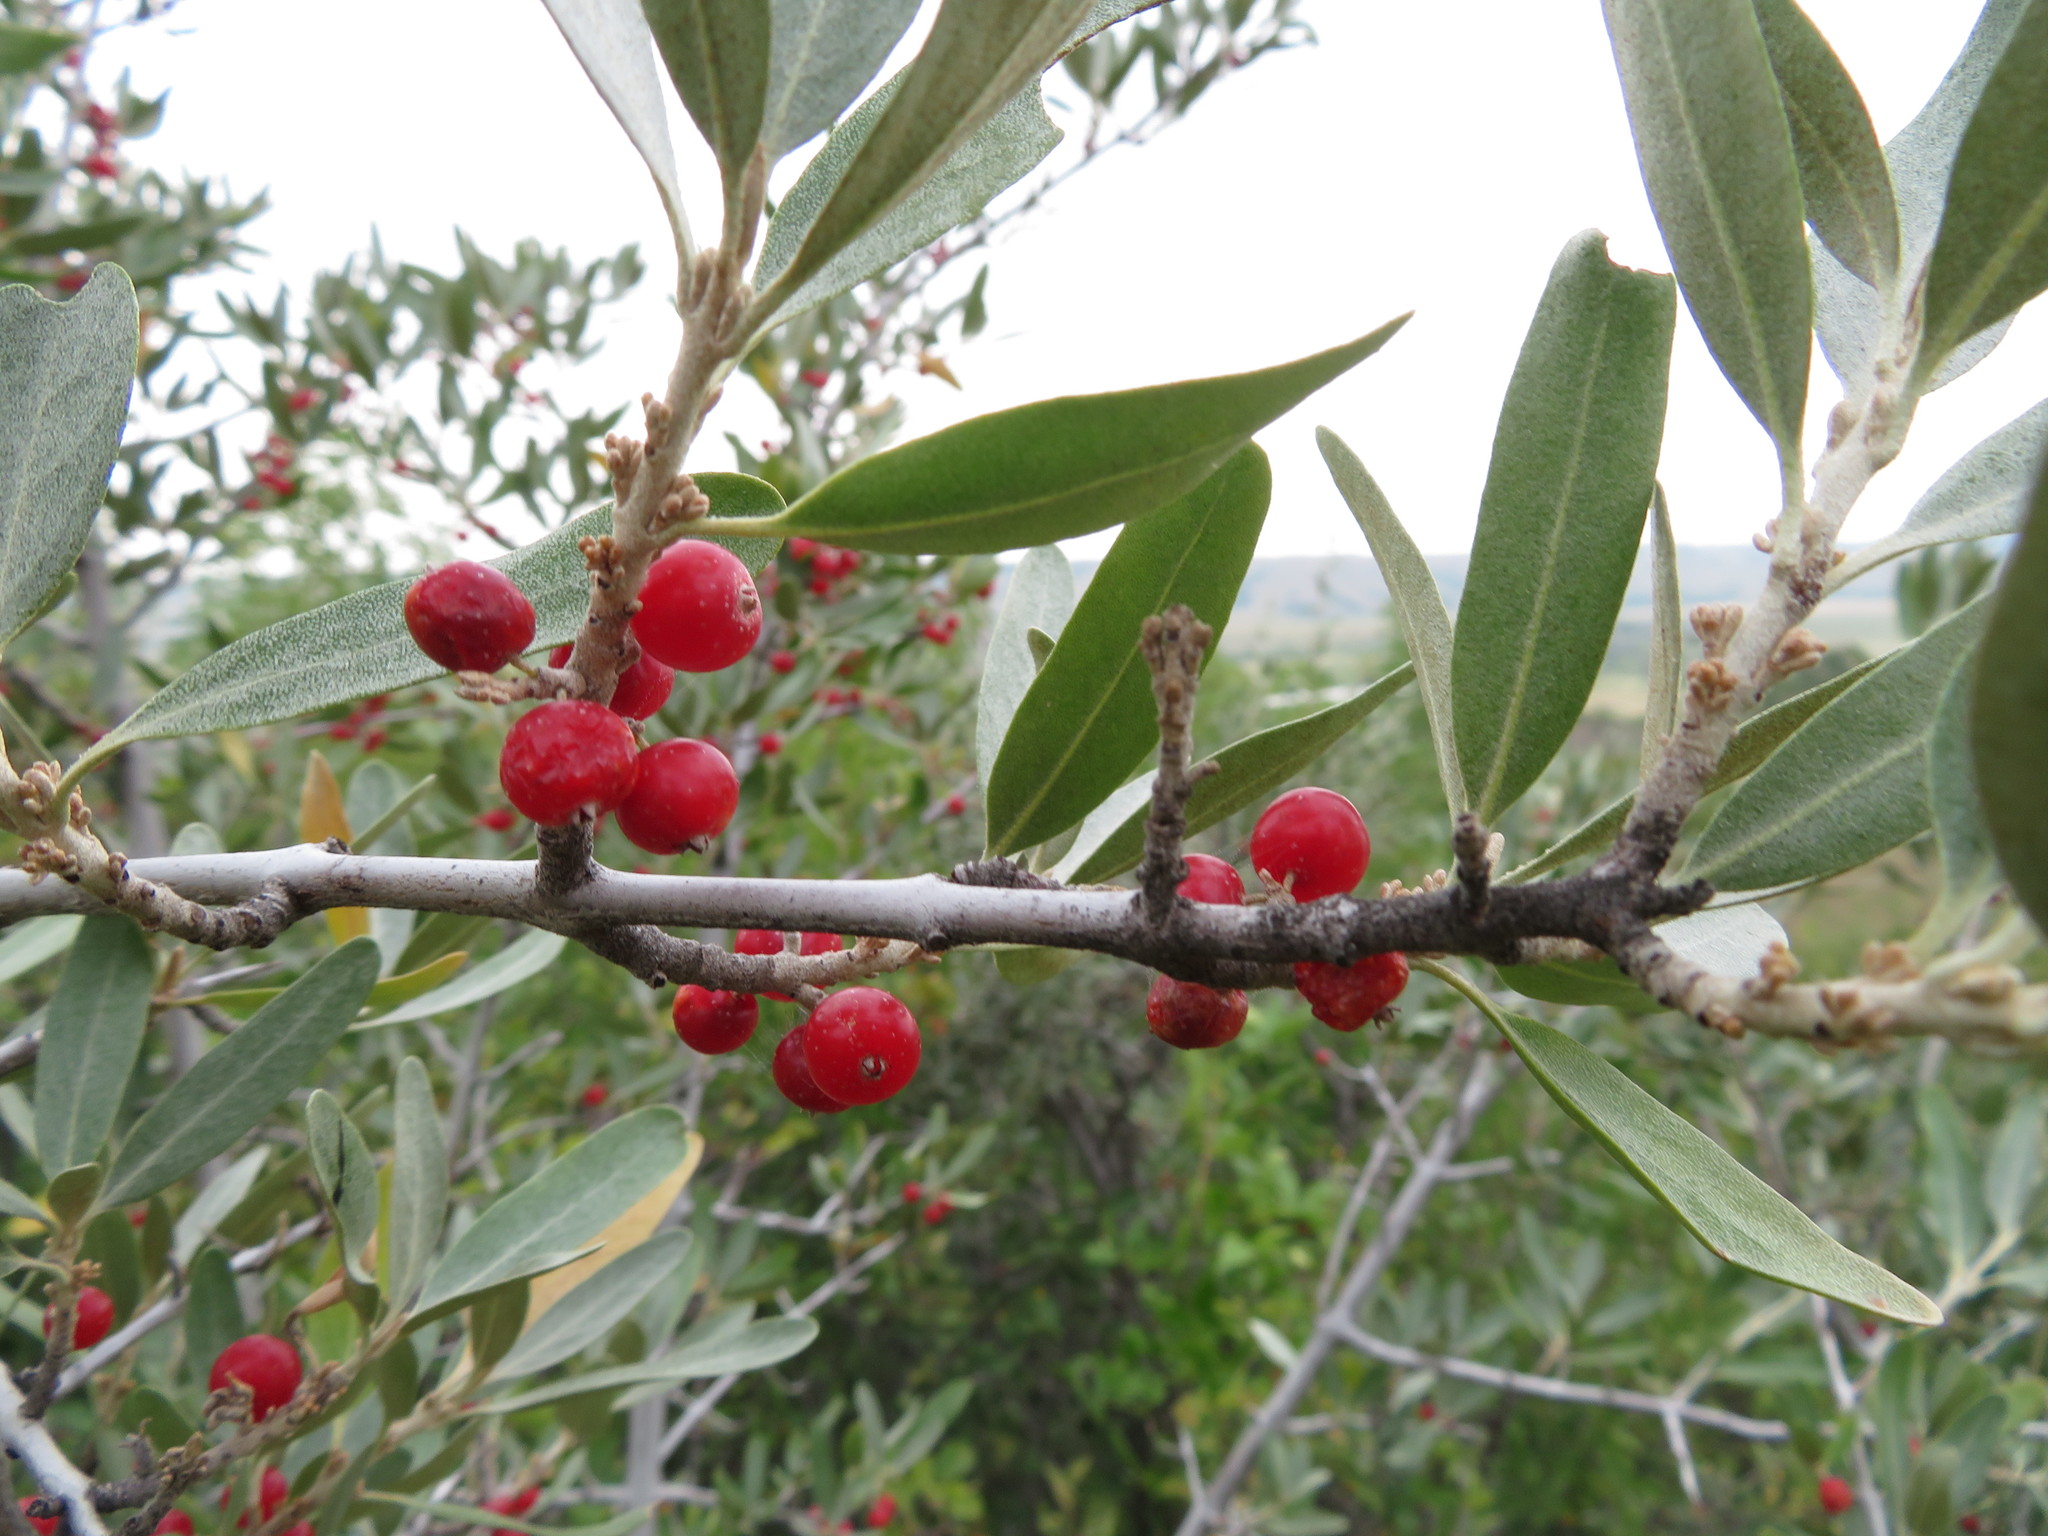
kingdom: Plantae
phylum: Tracheophyta
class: Magnoliopsida
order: Rosales
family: Elaeagnaceae
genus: Shepherdia
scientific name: Shepherdia argentea
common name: Silver buffaloberry
